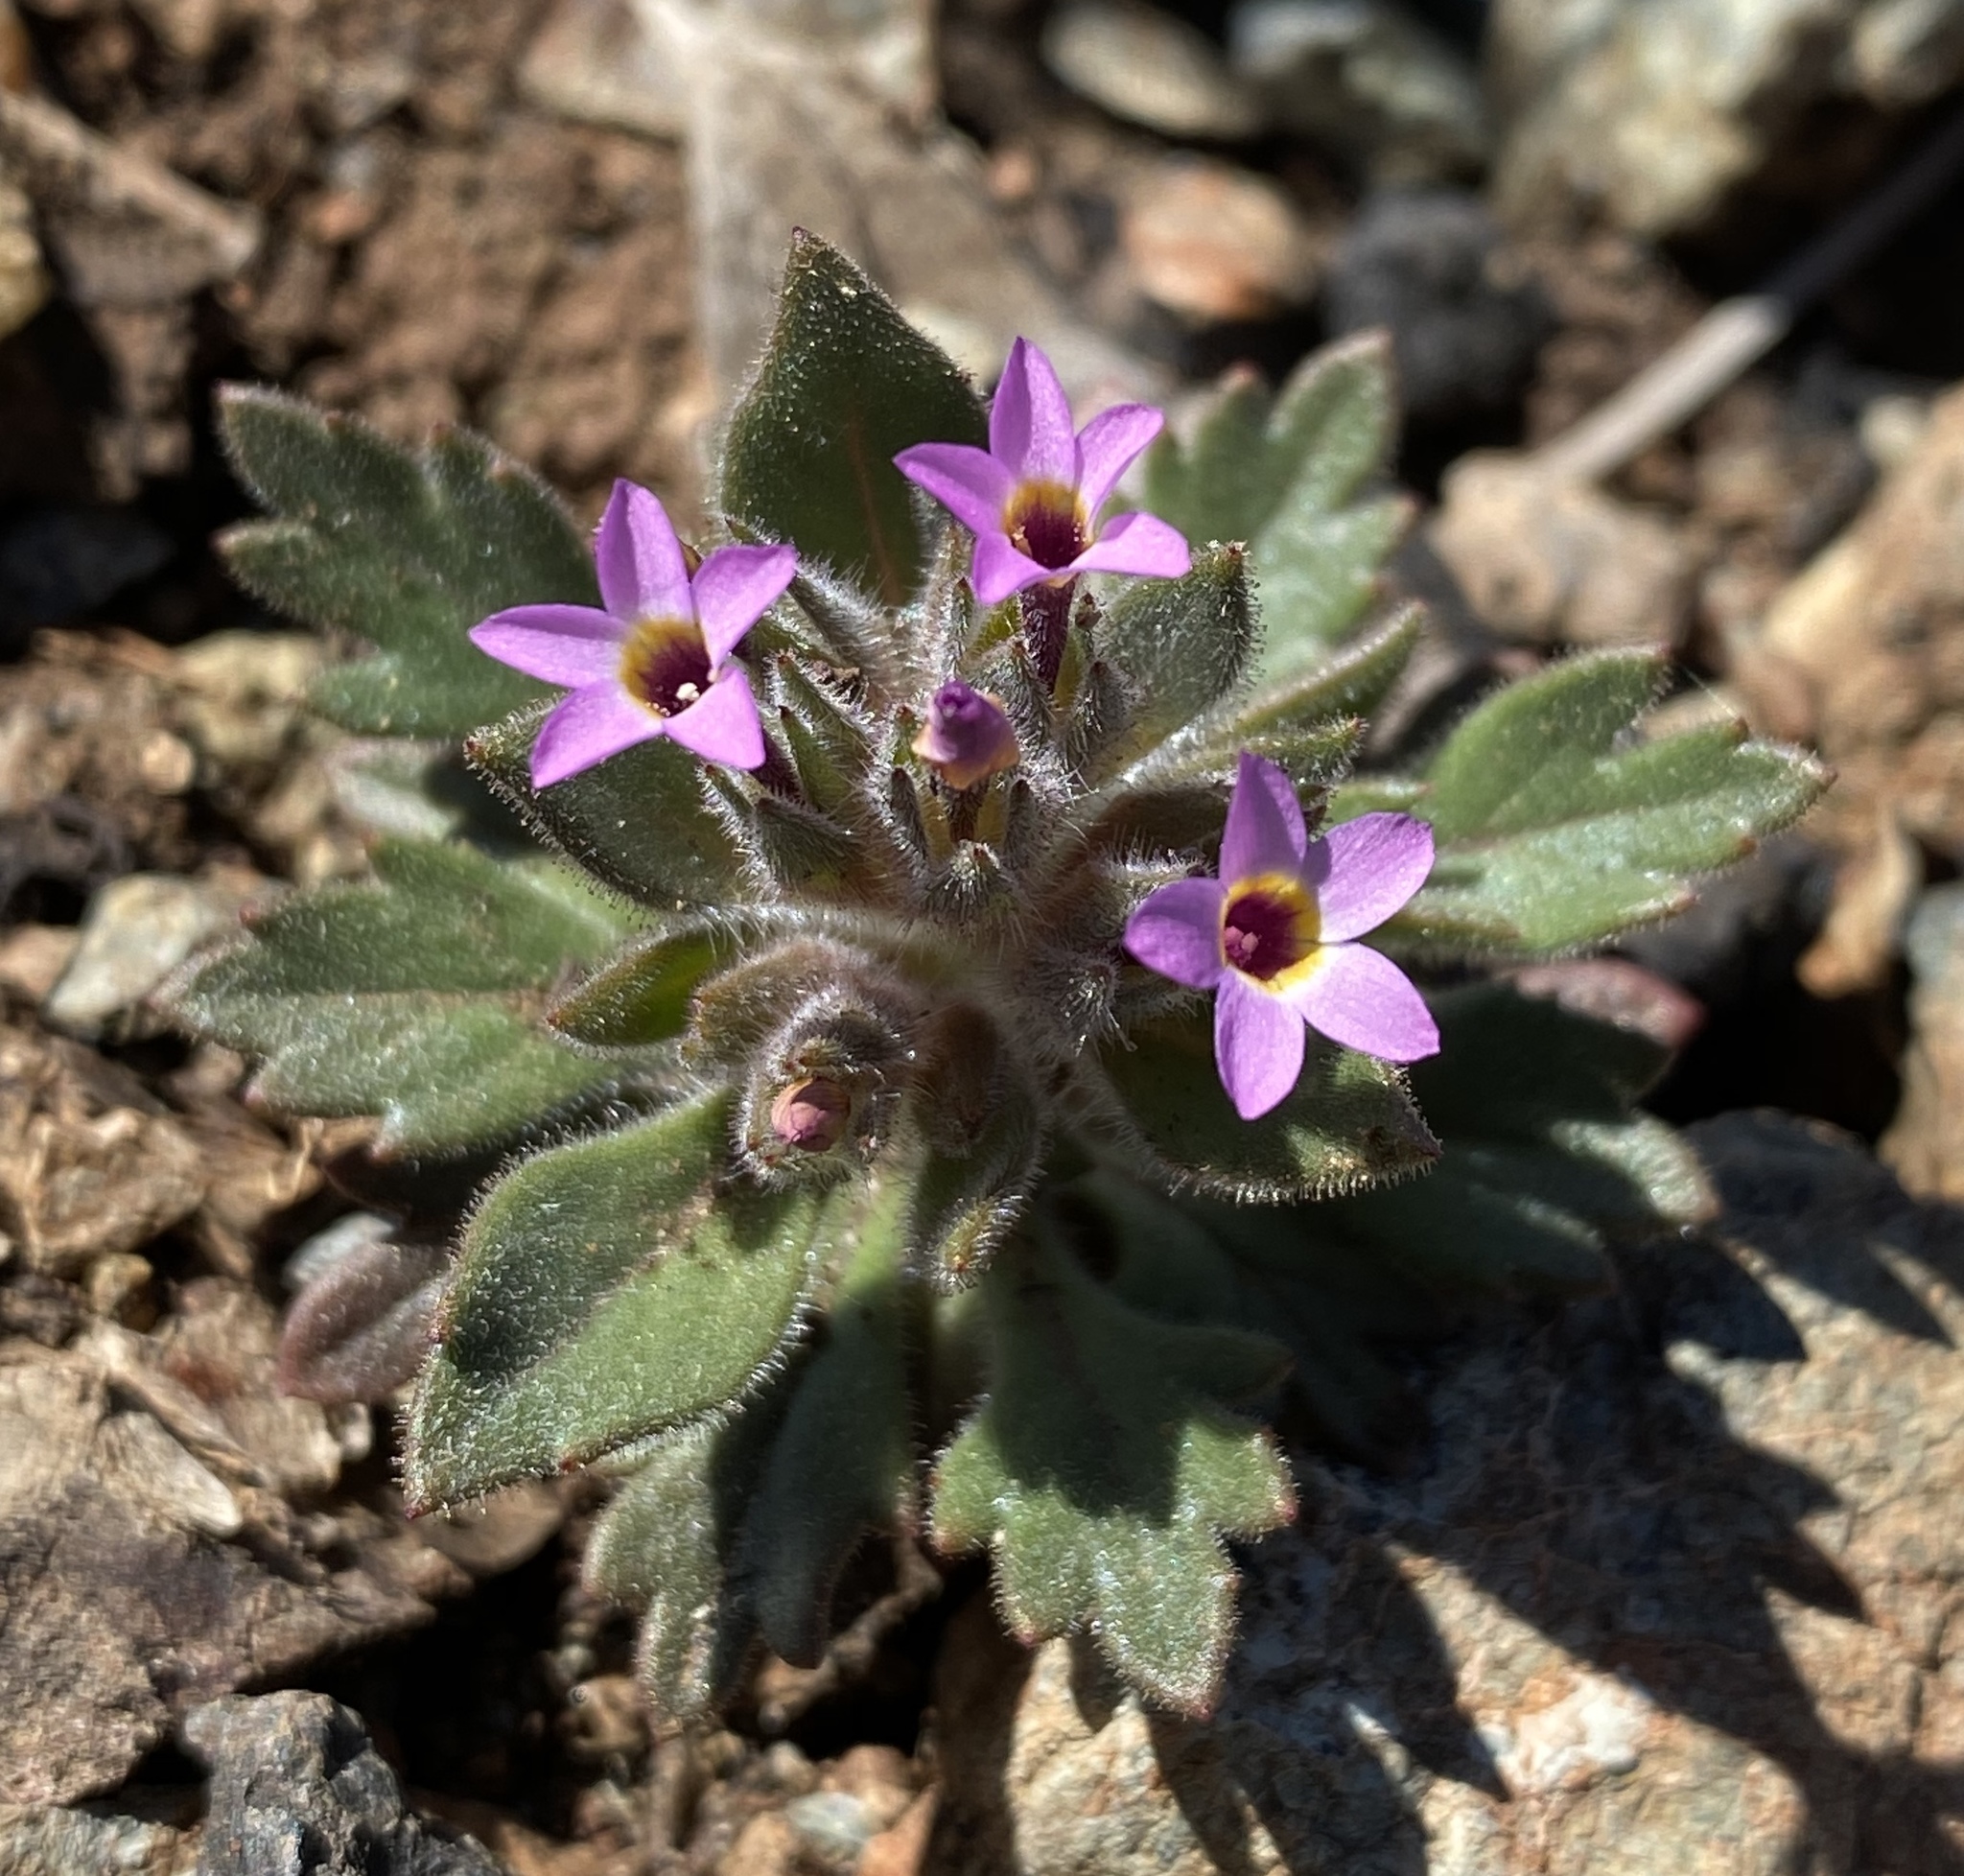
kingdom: Plantae
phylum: Tracheophyta
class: Magnoliopsida
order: Ericales
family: Polemoniaceae
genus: Collomia
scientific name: Collomia diversifolia
